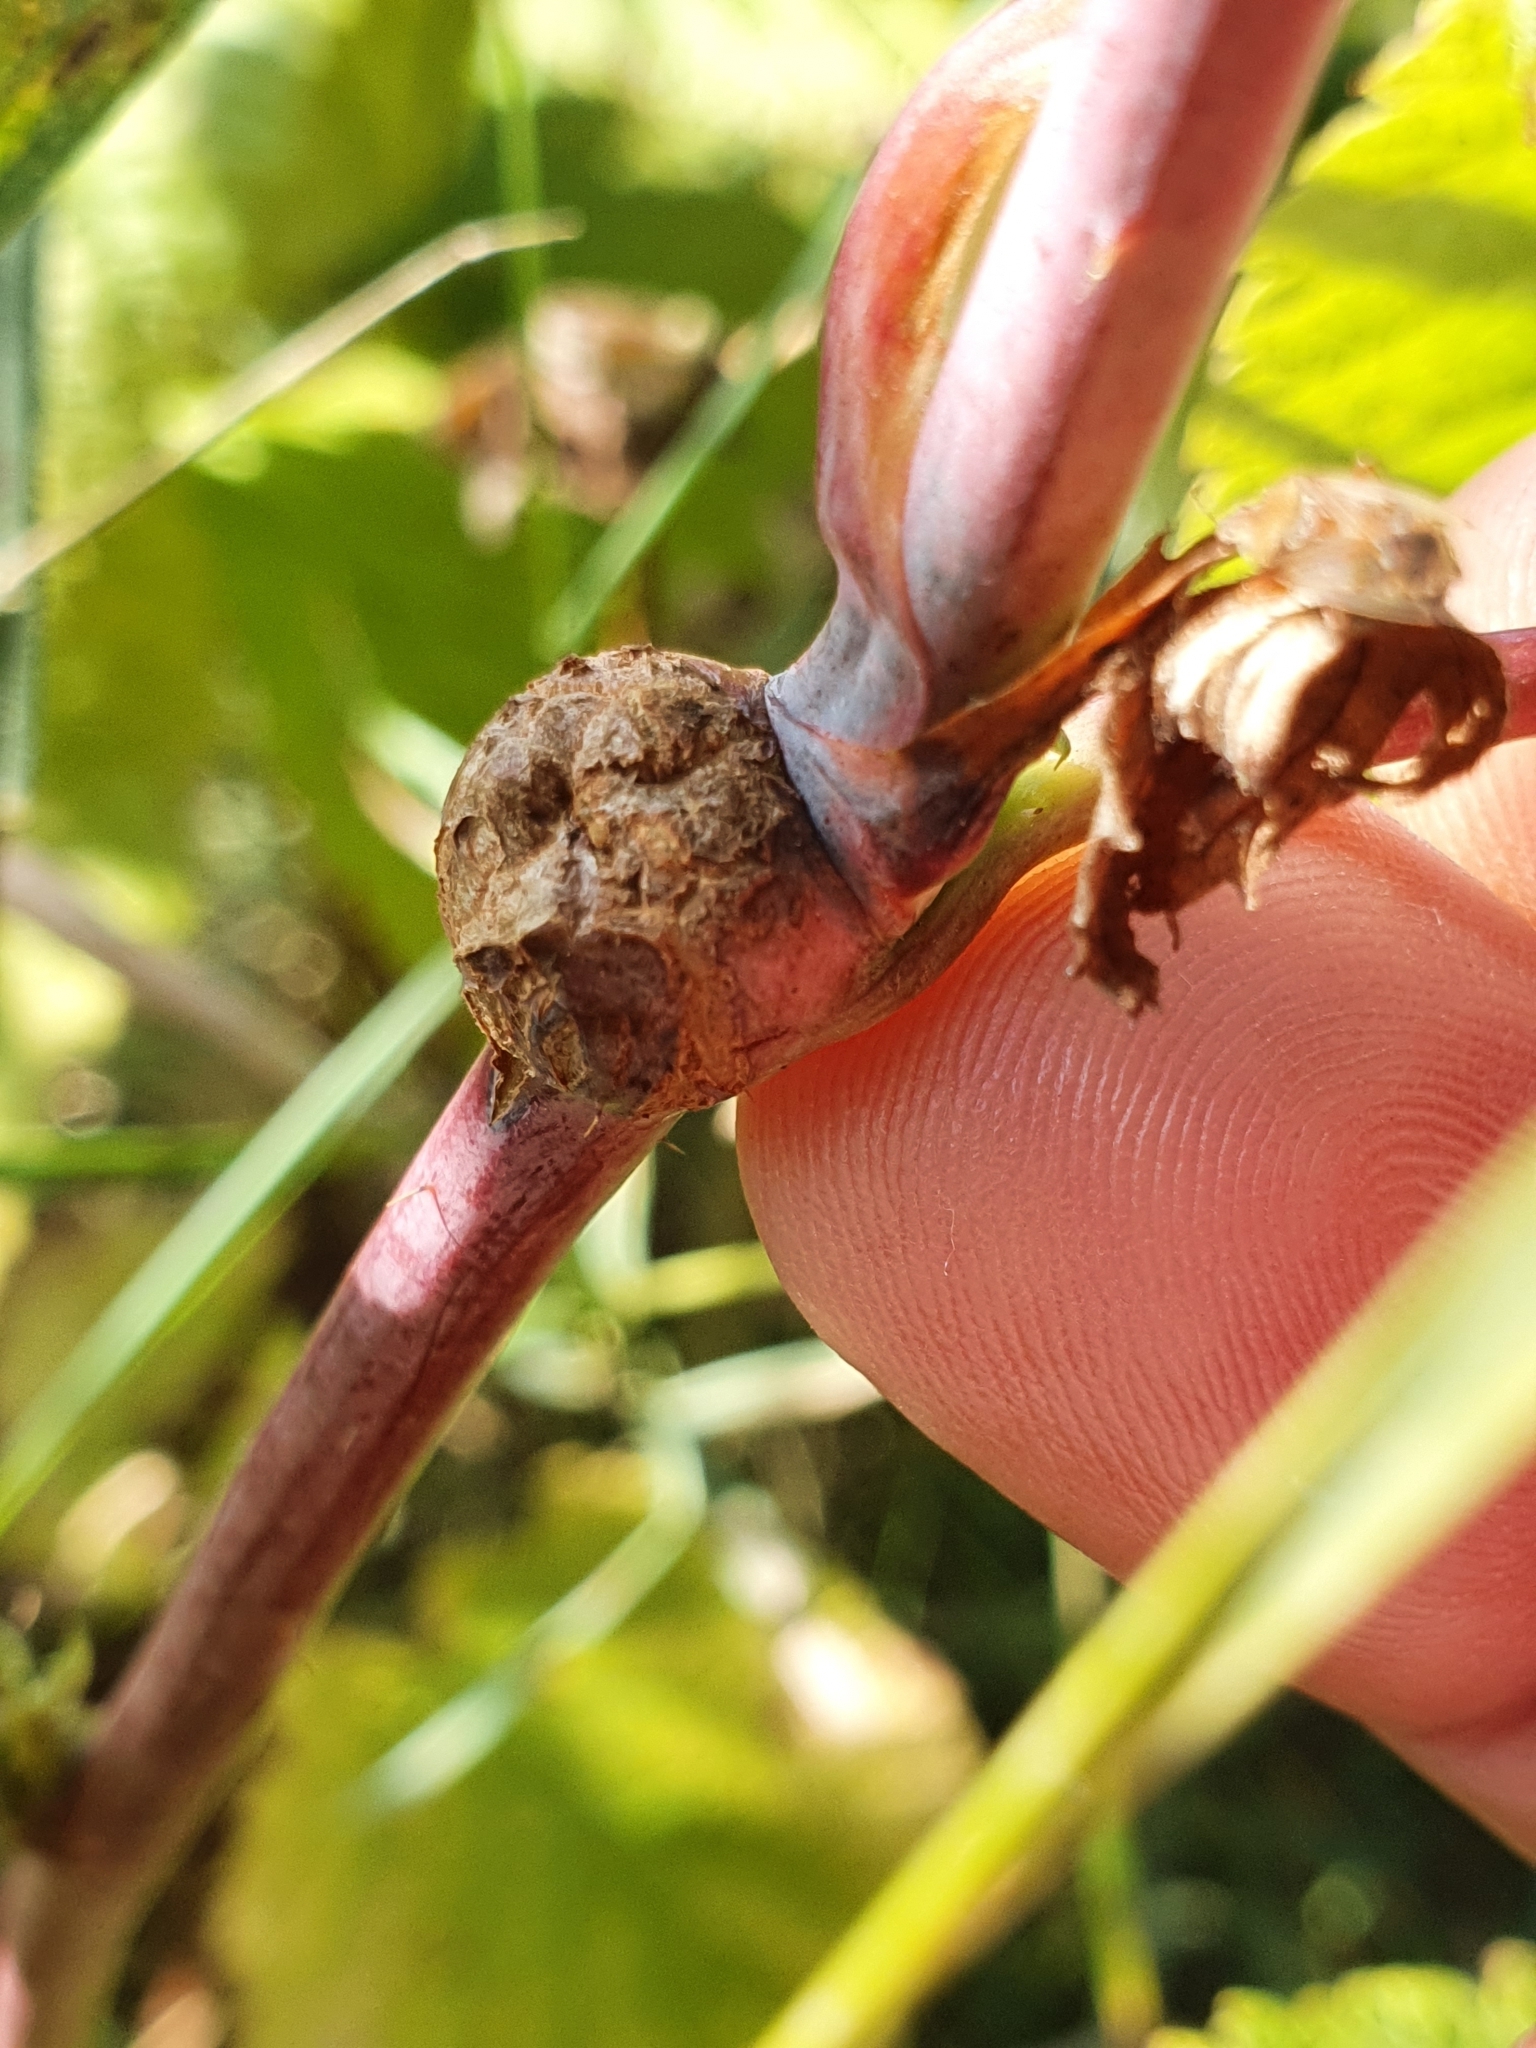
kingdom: Animalia
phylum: Arthropoda
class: Insecta
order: Diptera
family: Cecidomyiidae
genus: Lasioptera
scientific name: Lasioptera rubi
